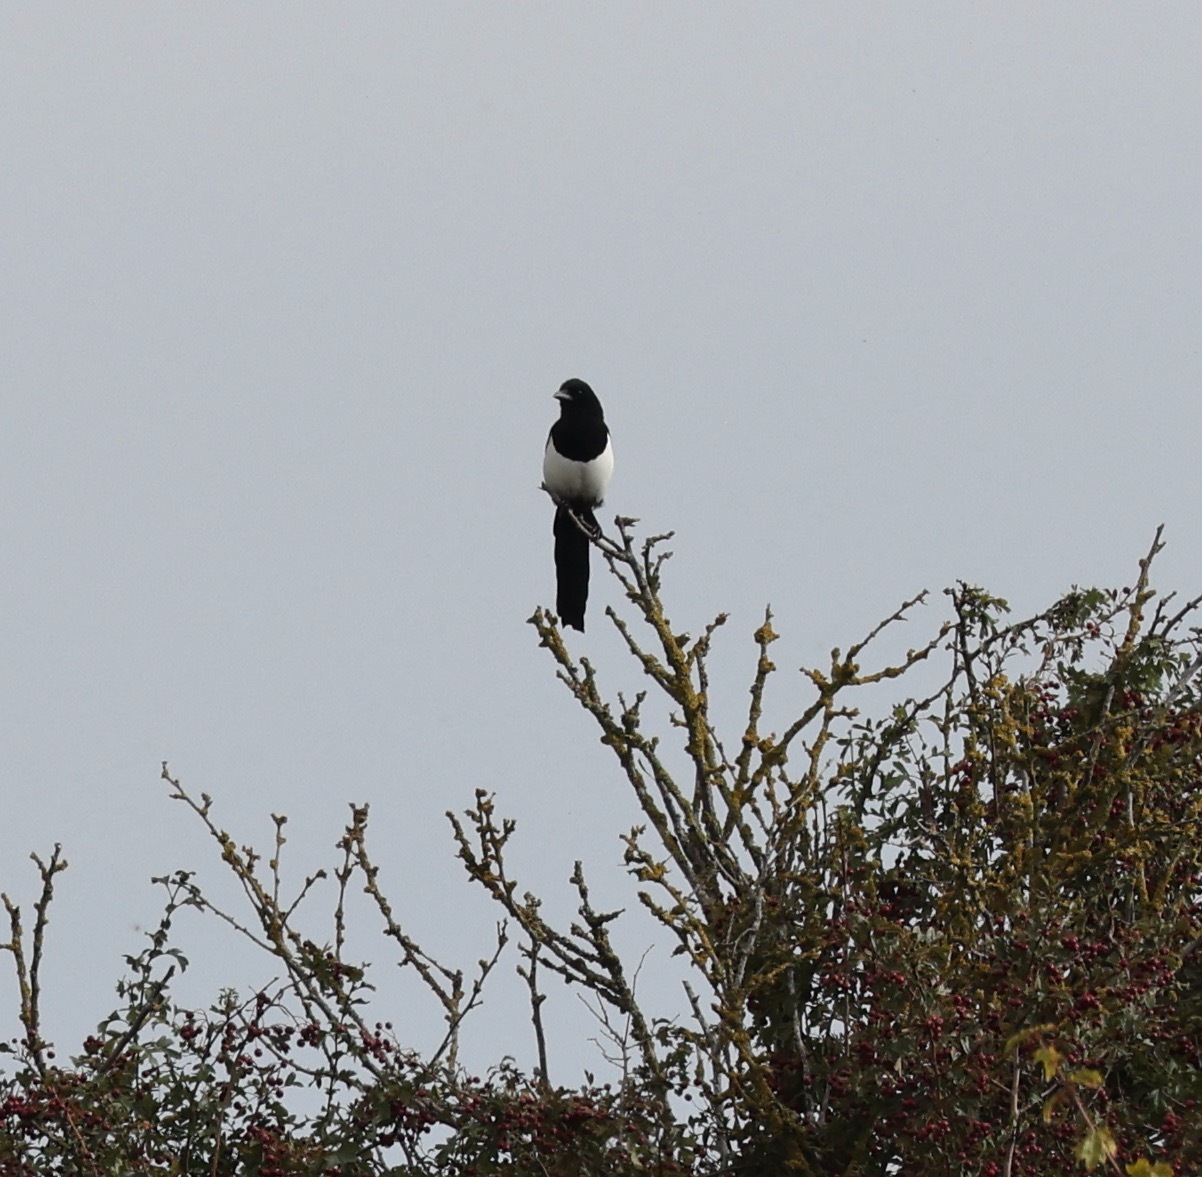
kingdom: Animalia
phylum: Chordata
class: Aves
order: Passeriformes
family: Corvidae
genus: Pica
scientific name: Pica pica
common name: Eurasian magpie
